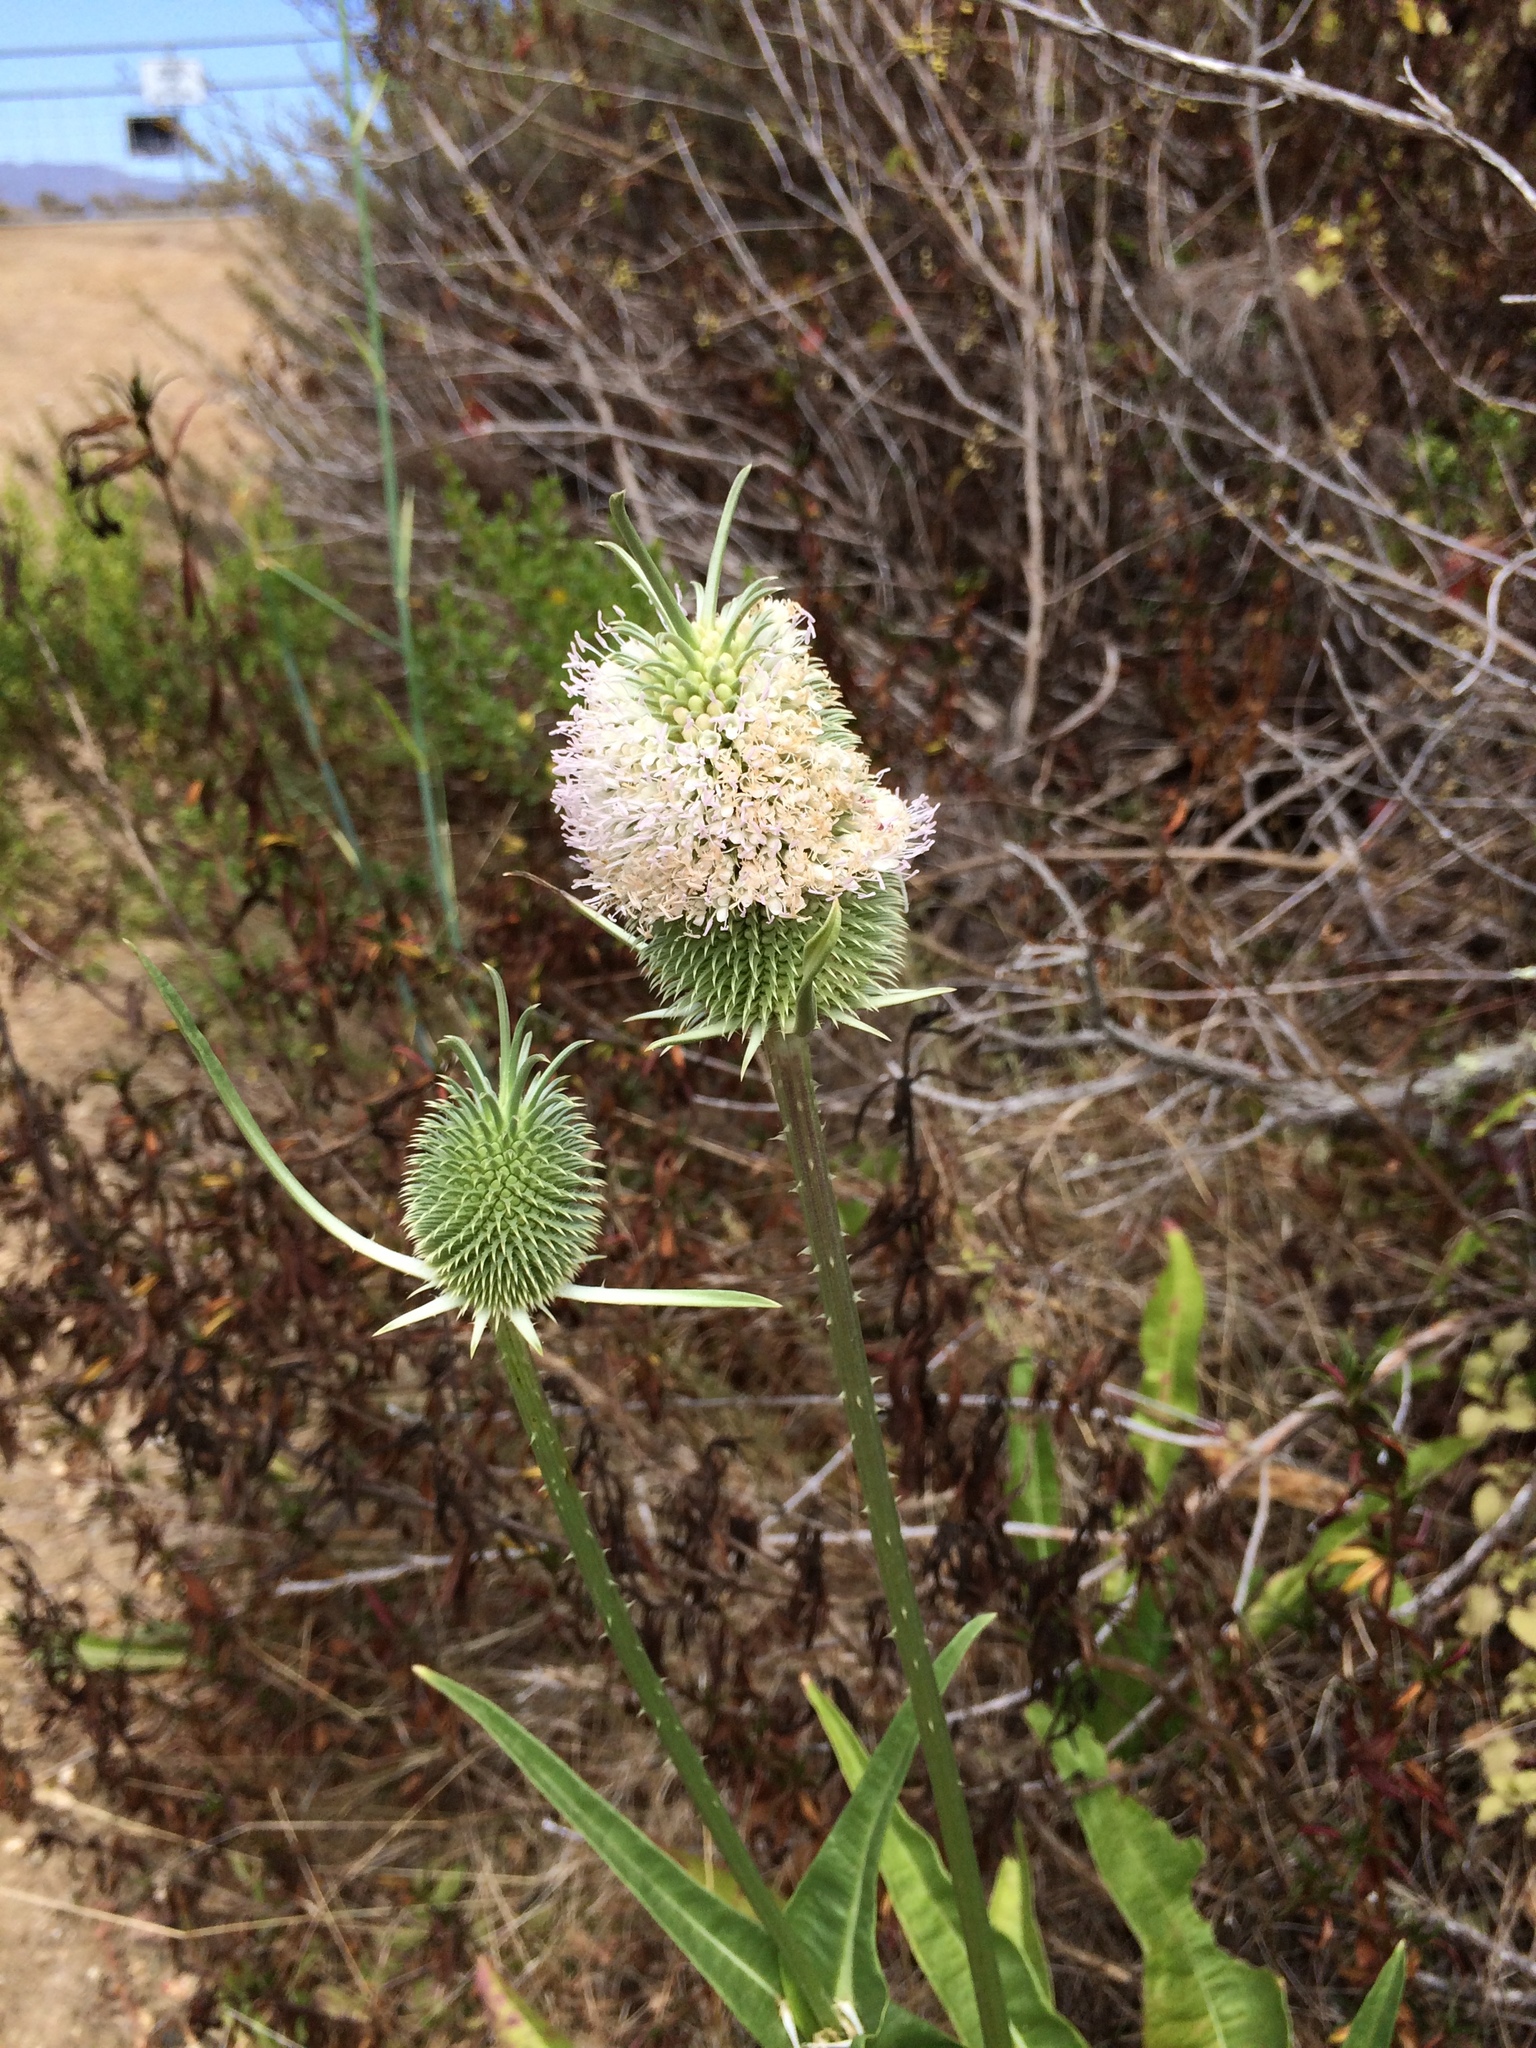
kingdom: Plantae
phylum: Tracheophyta
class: Magnoliopsida
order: Dipsacales
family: Caprifoliaceae
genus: Dipsacus
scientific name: Dipsacus sativus
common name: Fuller's teasel
